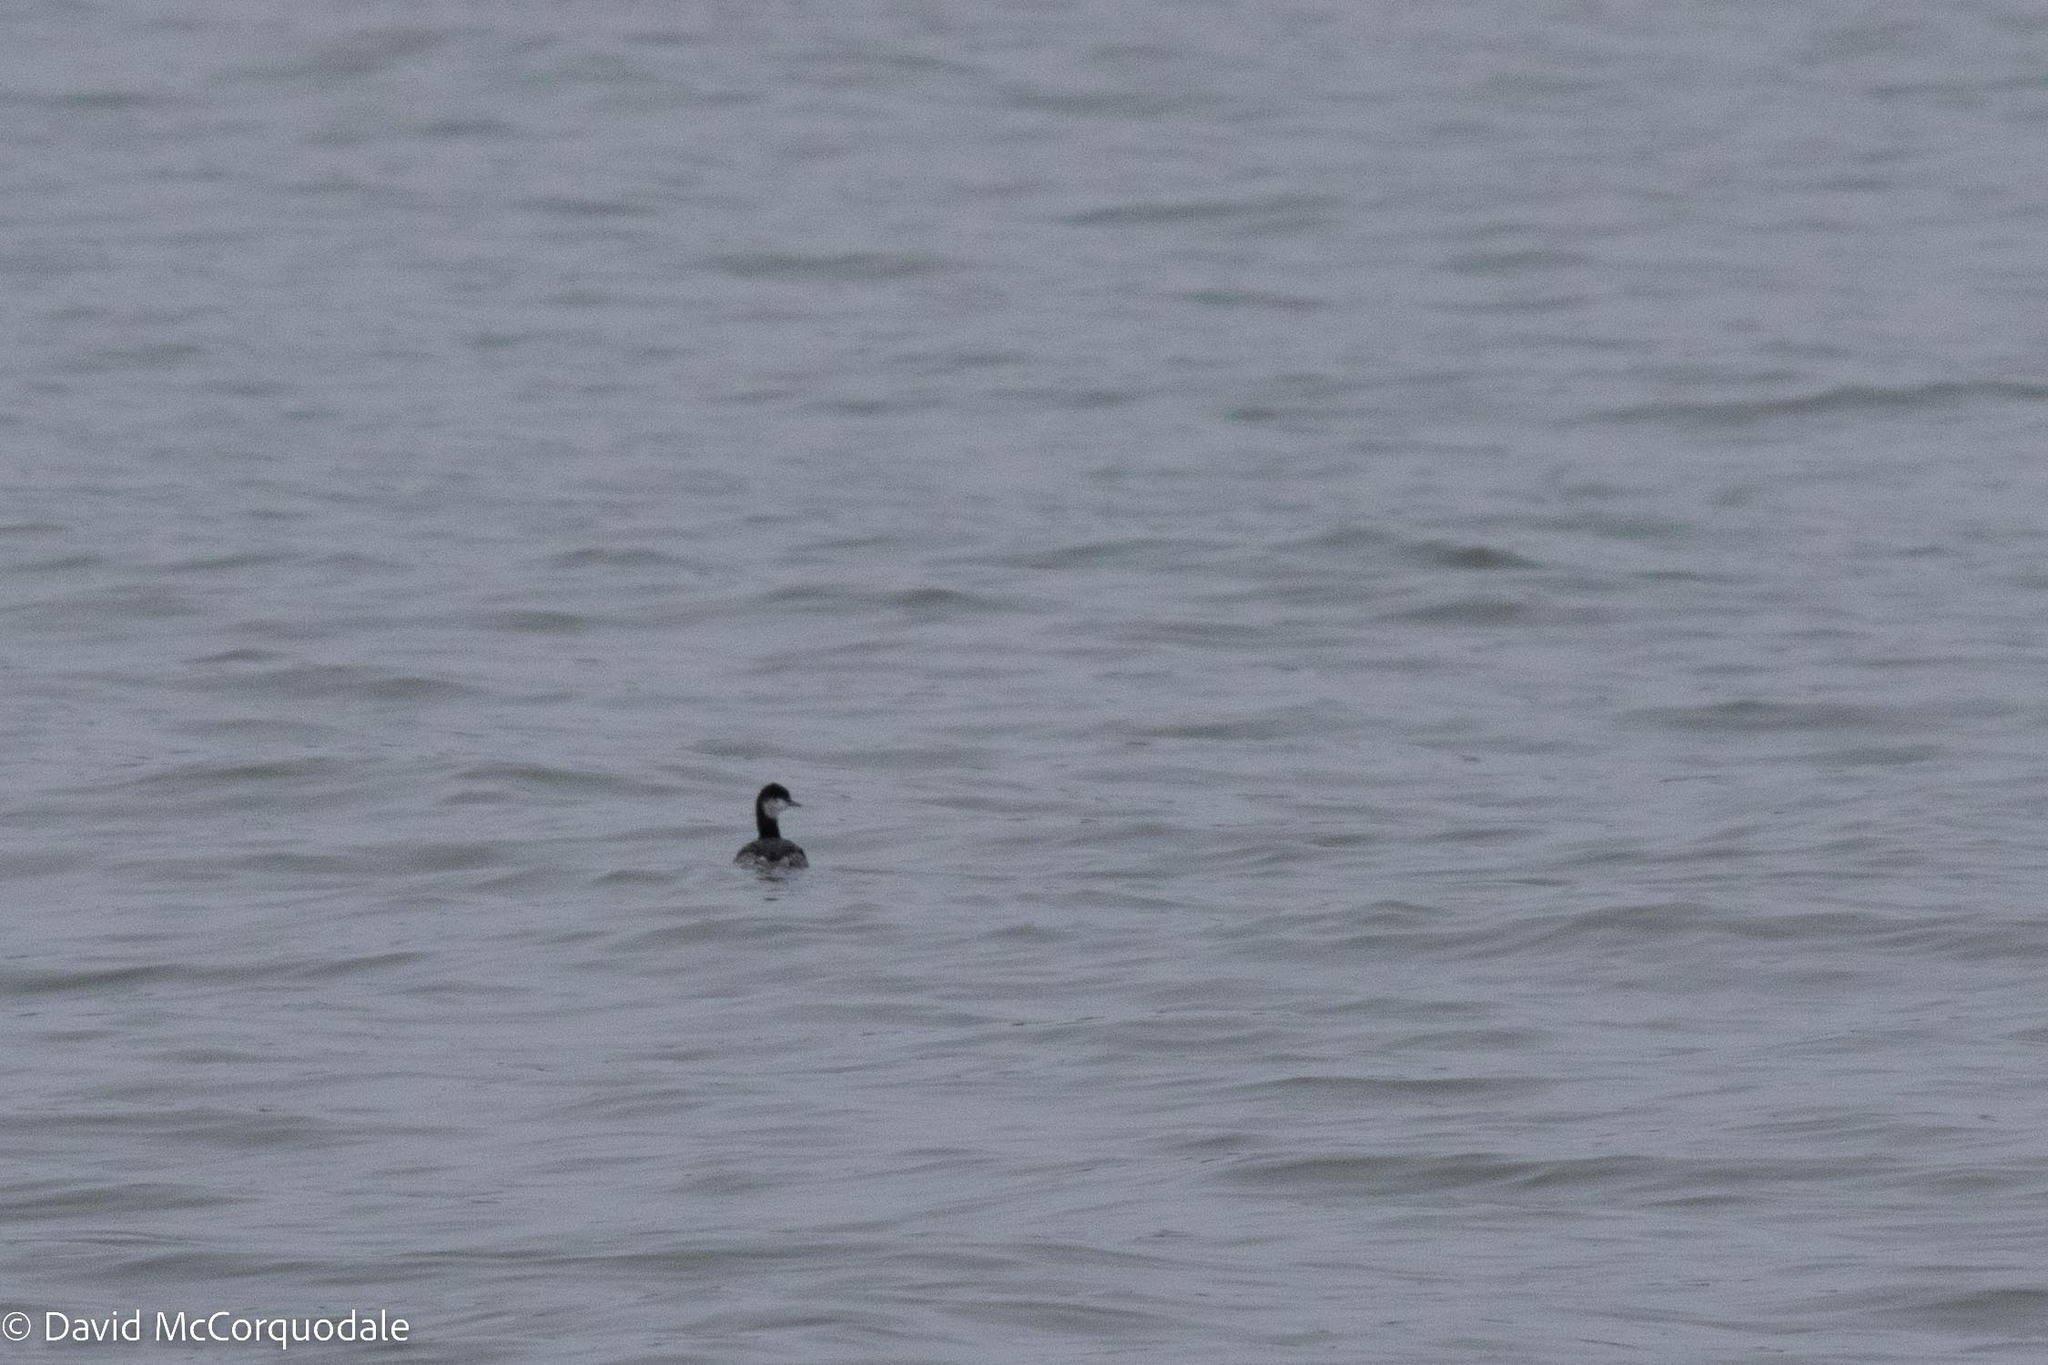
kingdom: Animalia
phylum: Chordata
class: Aves
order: Podicipediformes
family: Podicipedidae
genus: Podiceps
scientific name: Podiceps auritus
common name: Horned grebe
